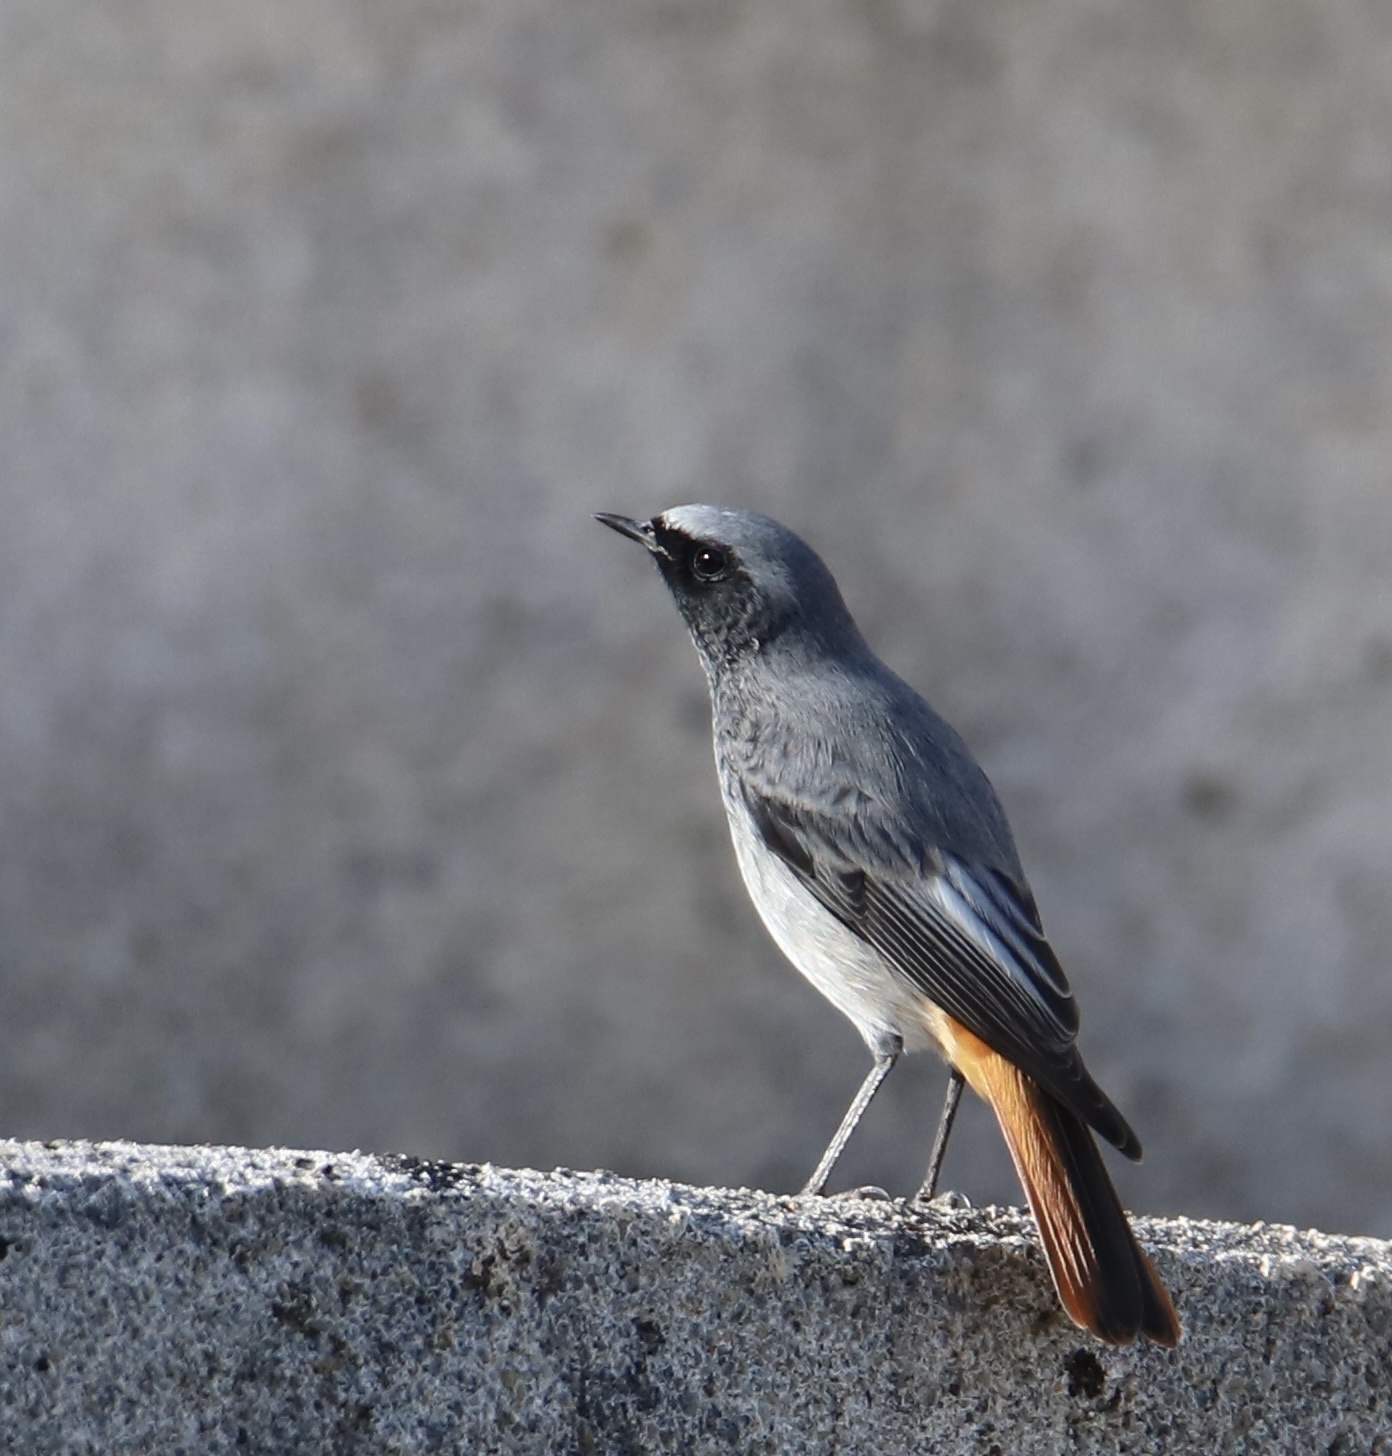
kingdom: Animalia
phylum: Chordata
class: Aves
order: Passeriformes
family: Muscicapidae
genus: Phoenicurus
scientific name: Phoenicurus ochruros
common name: Black redstart
